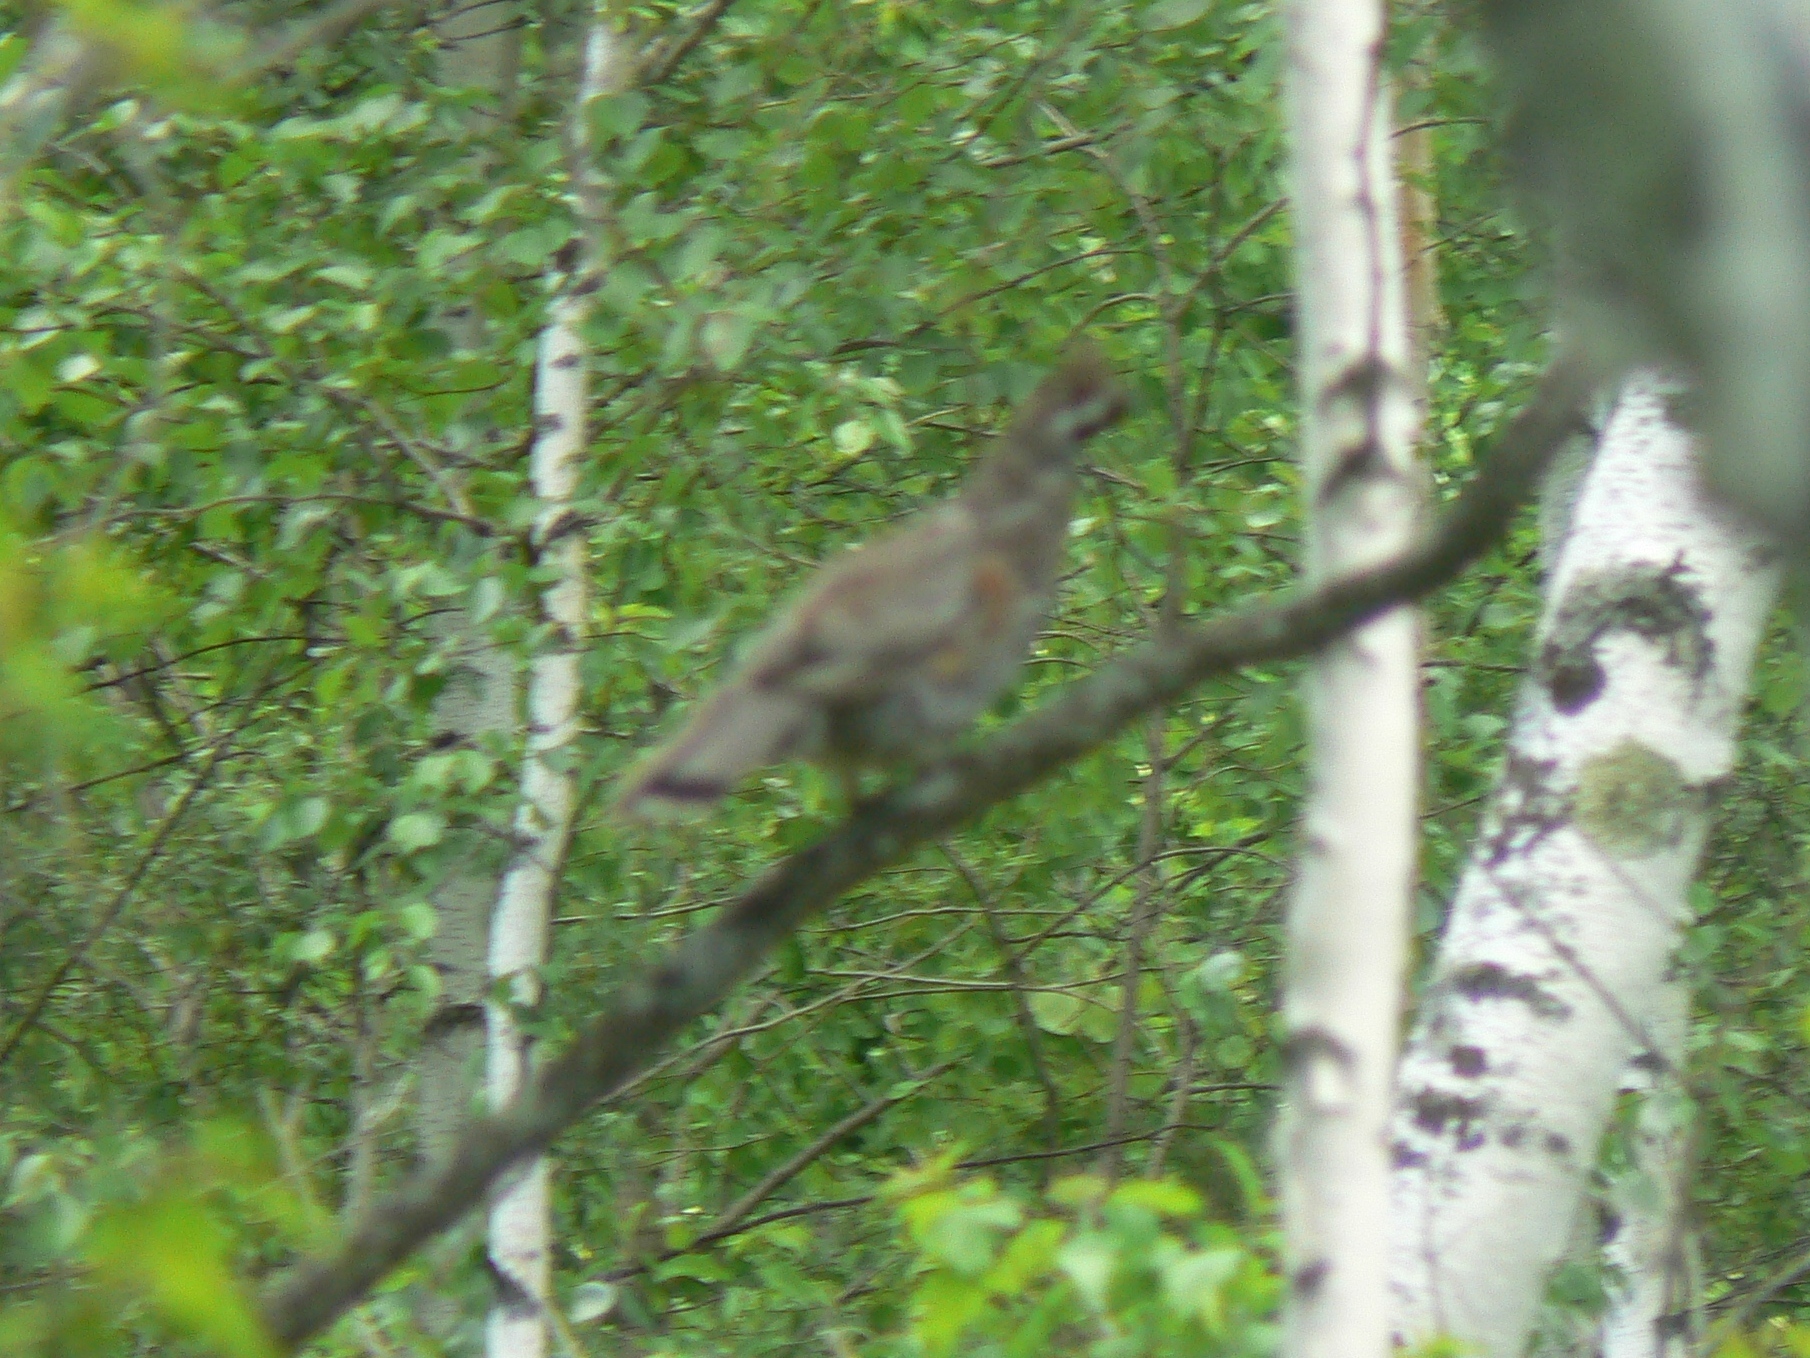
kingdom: Animalia
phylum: Chordata
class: Aves
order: Galliformes
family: Phasianidae
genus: Tetrastes
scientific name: Tetrastes bonasia
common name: Hazel grouse
